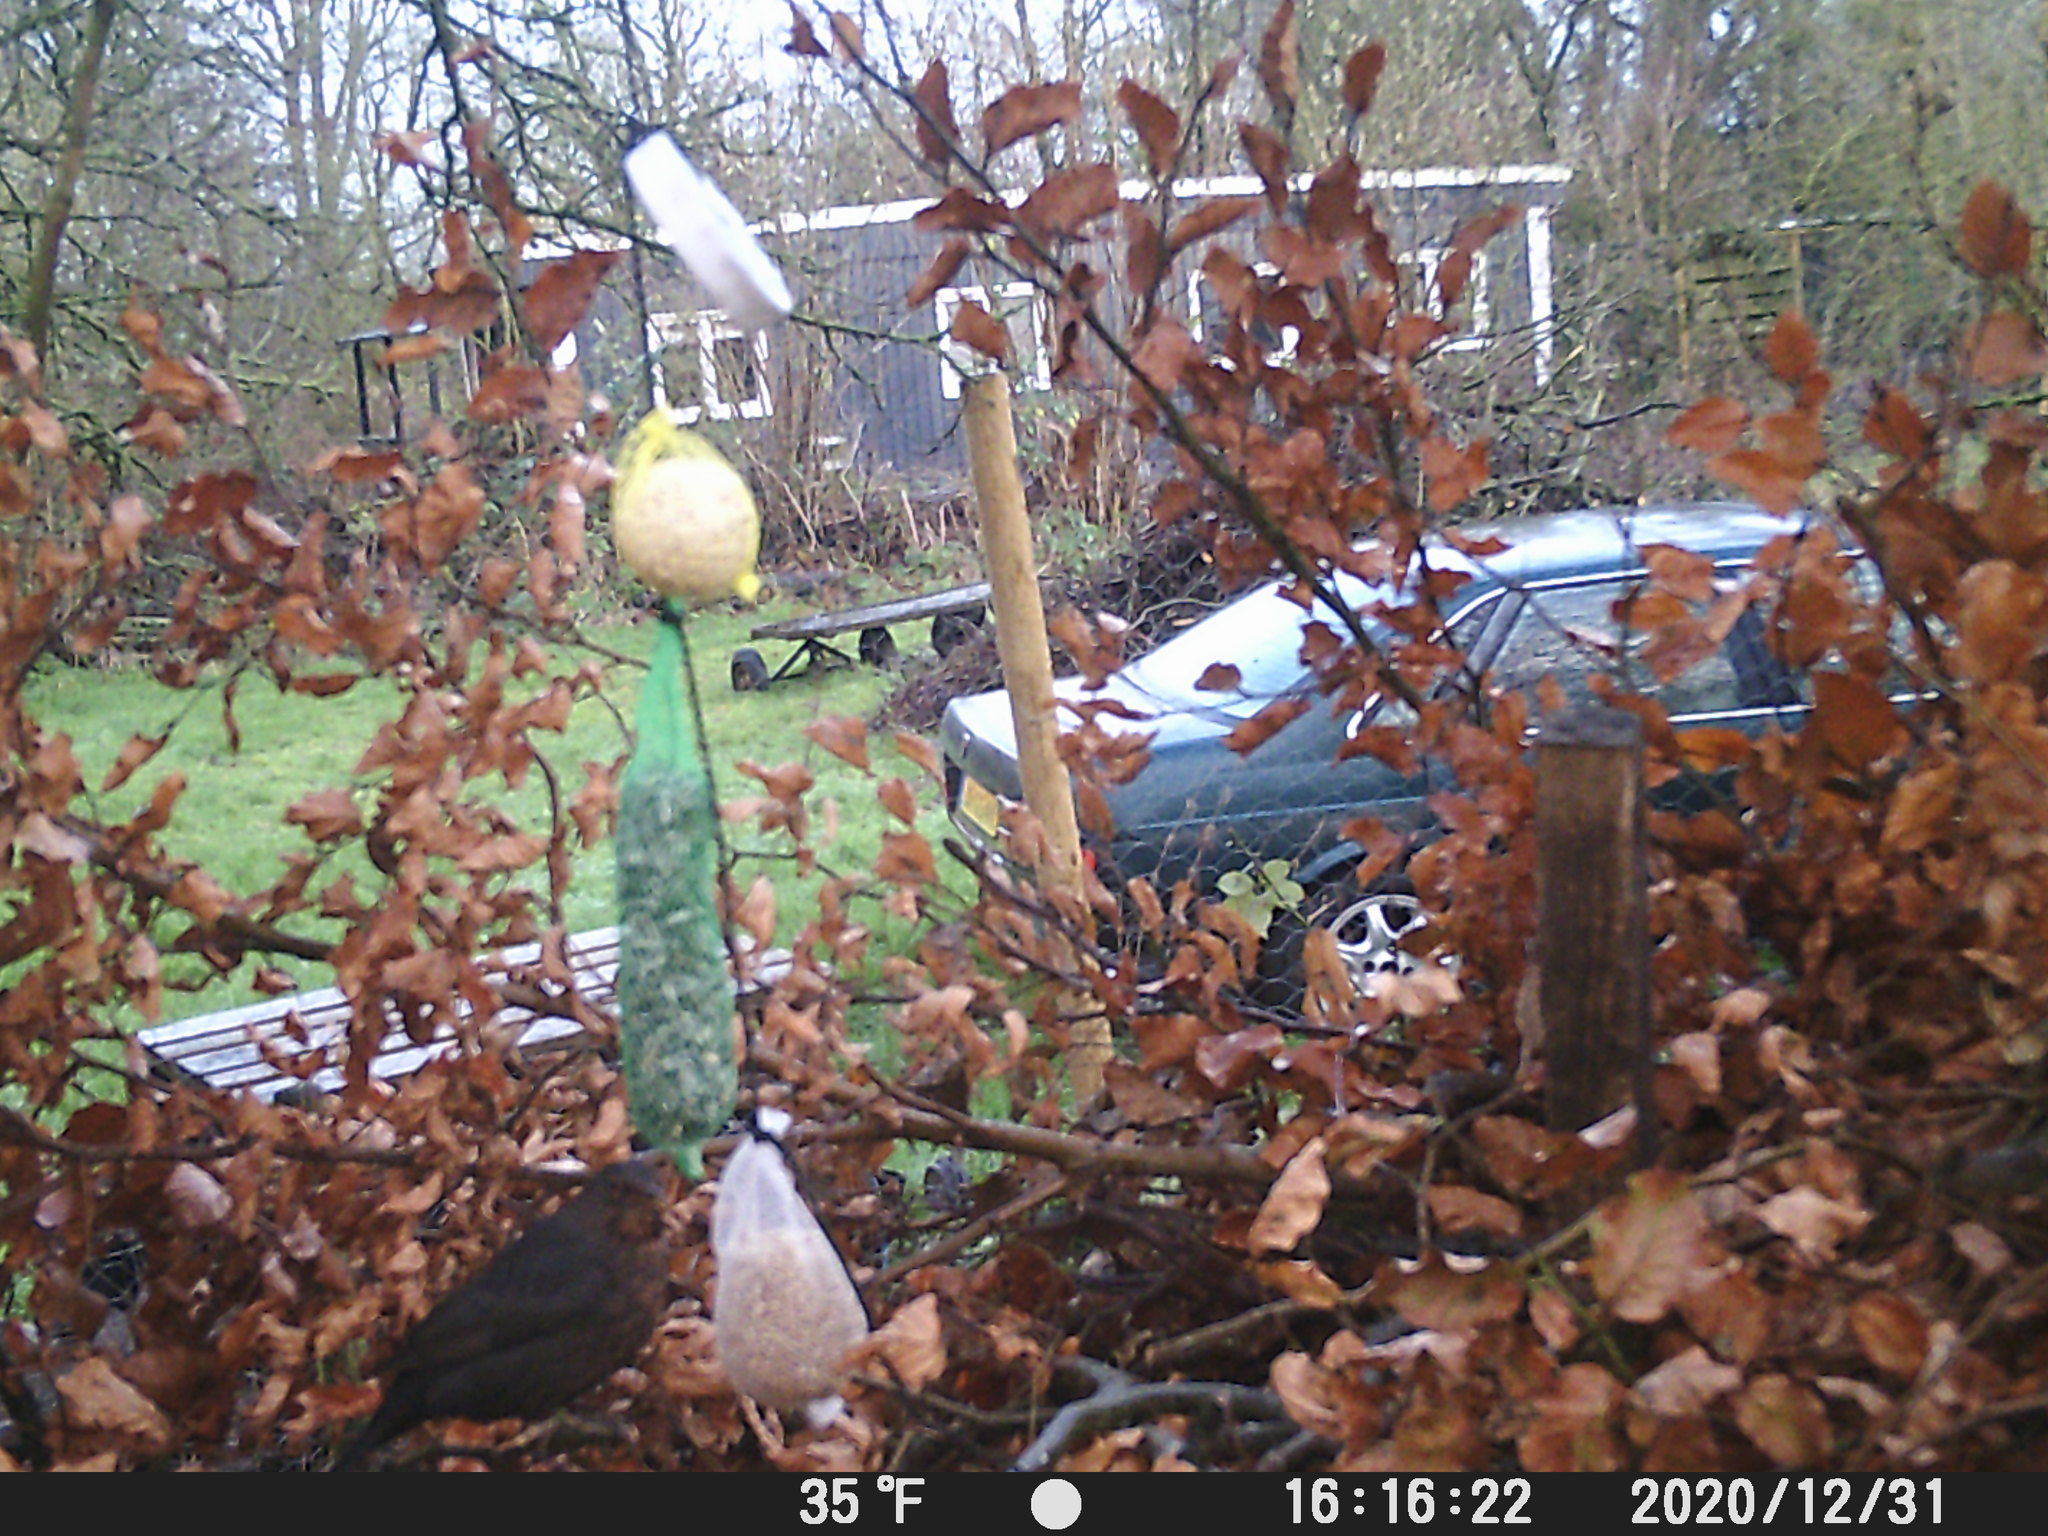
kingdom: Animalia
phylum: Chordata
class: Aves
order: Passeriformes
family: Turdidae
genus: Turdus
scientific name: Turdus merula
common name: Common blackbird
